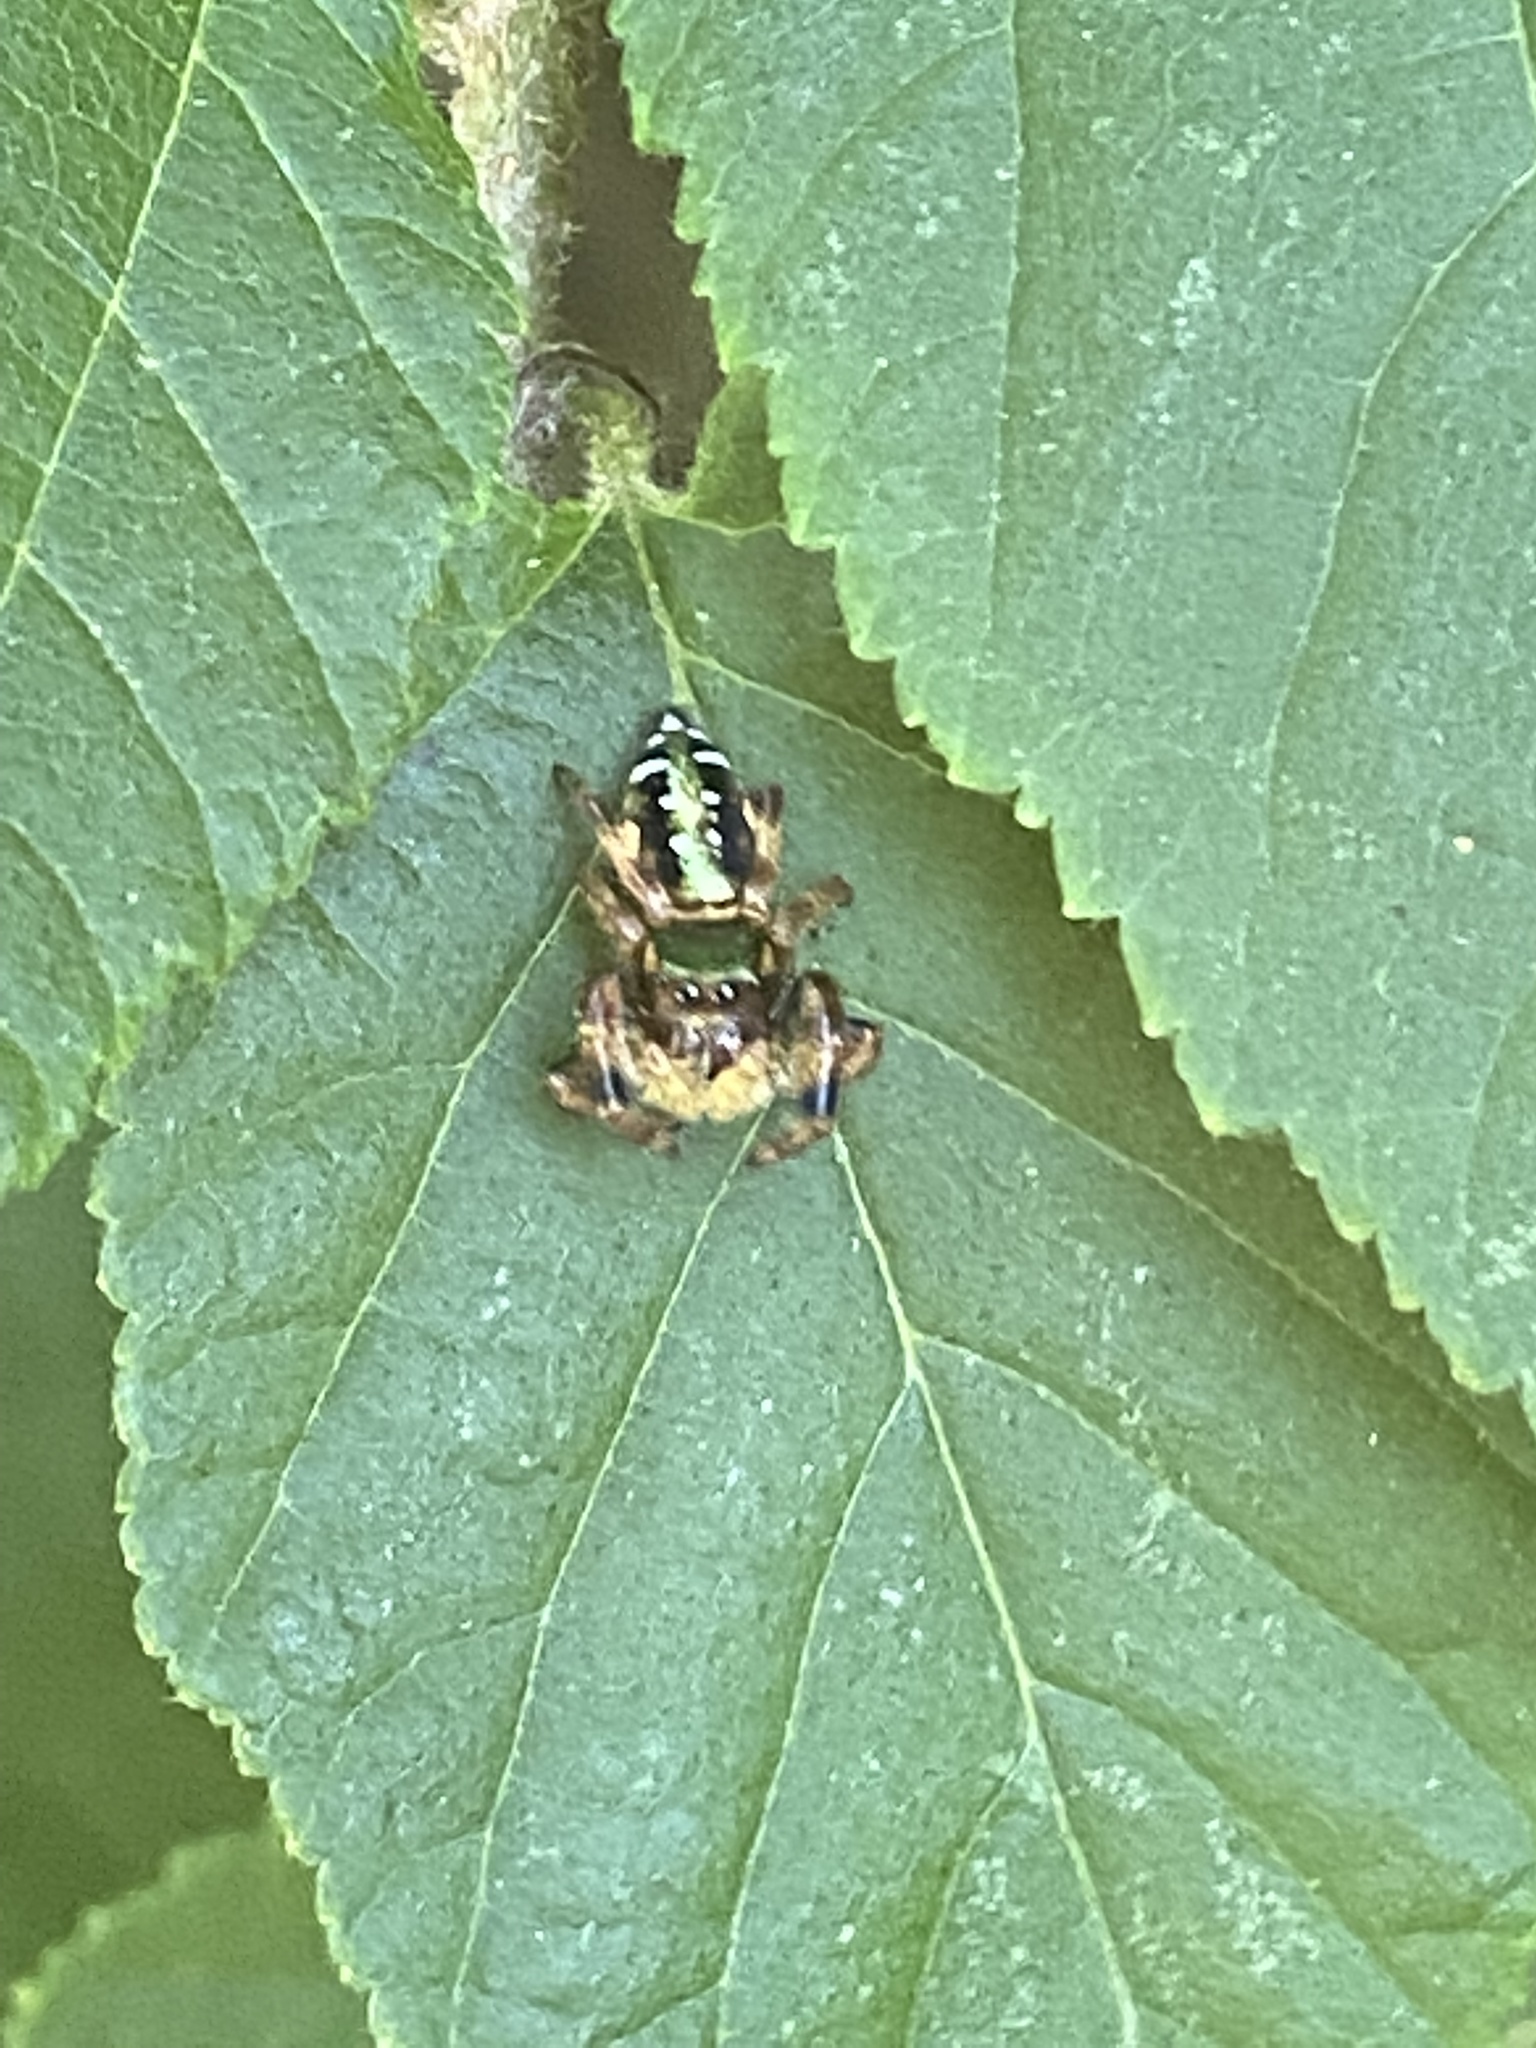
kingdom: Animalia
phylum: Arthropoda
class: Arachnida
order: Araneae
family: Salticidae
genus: Paraphidippus
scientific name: Paraphidippus aurantius
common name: Jumping spiders
